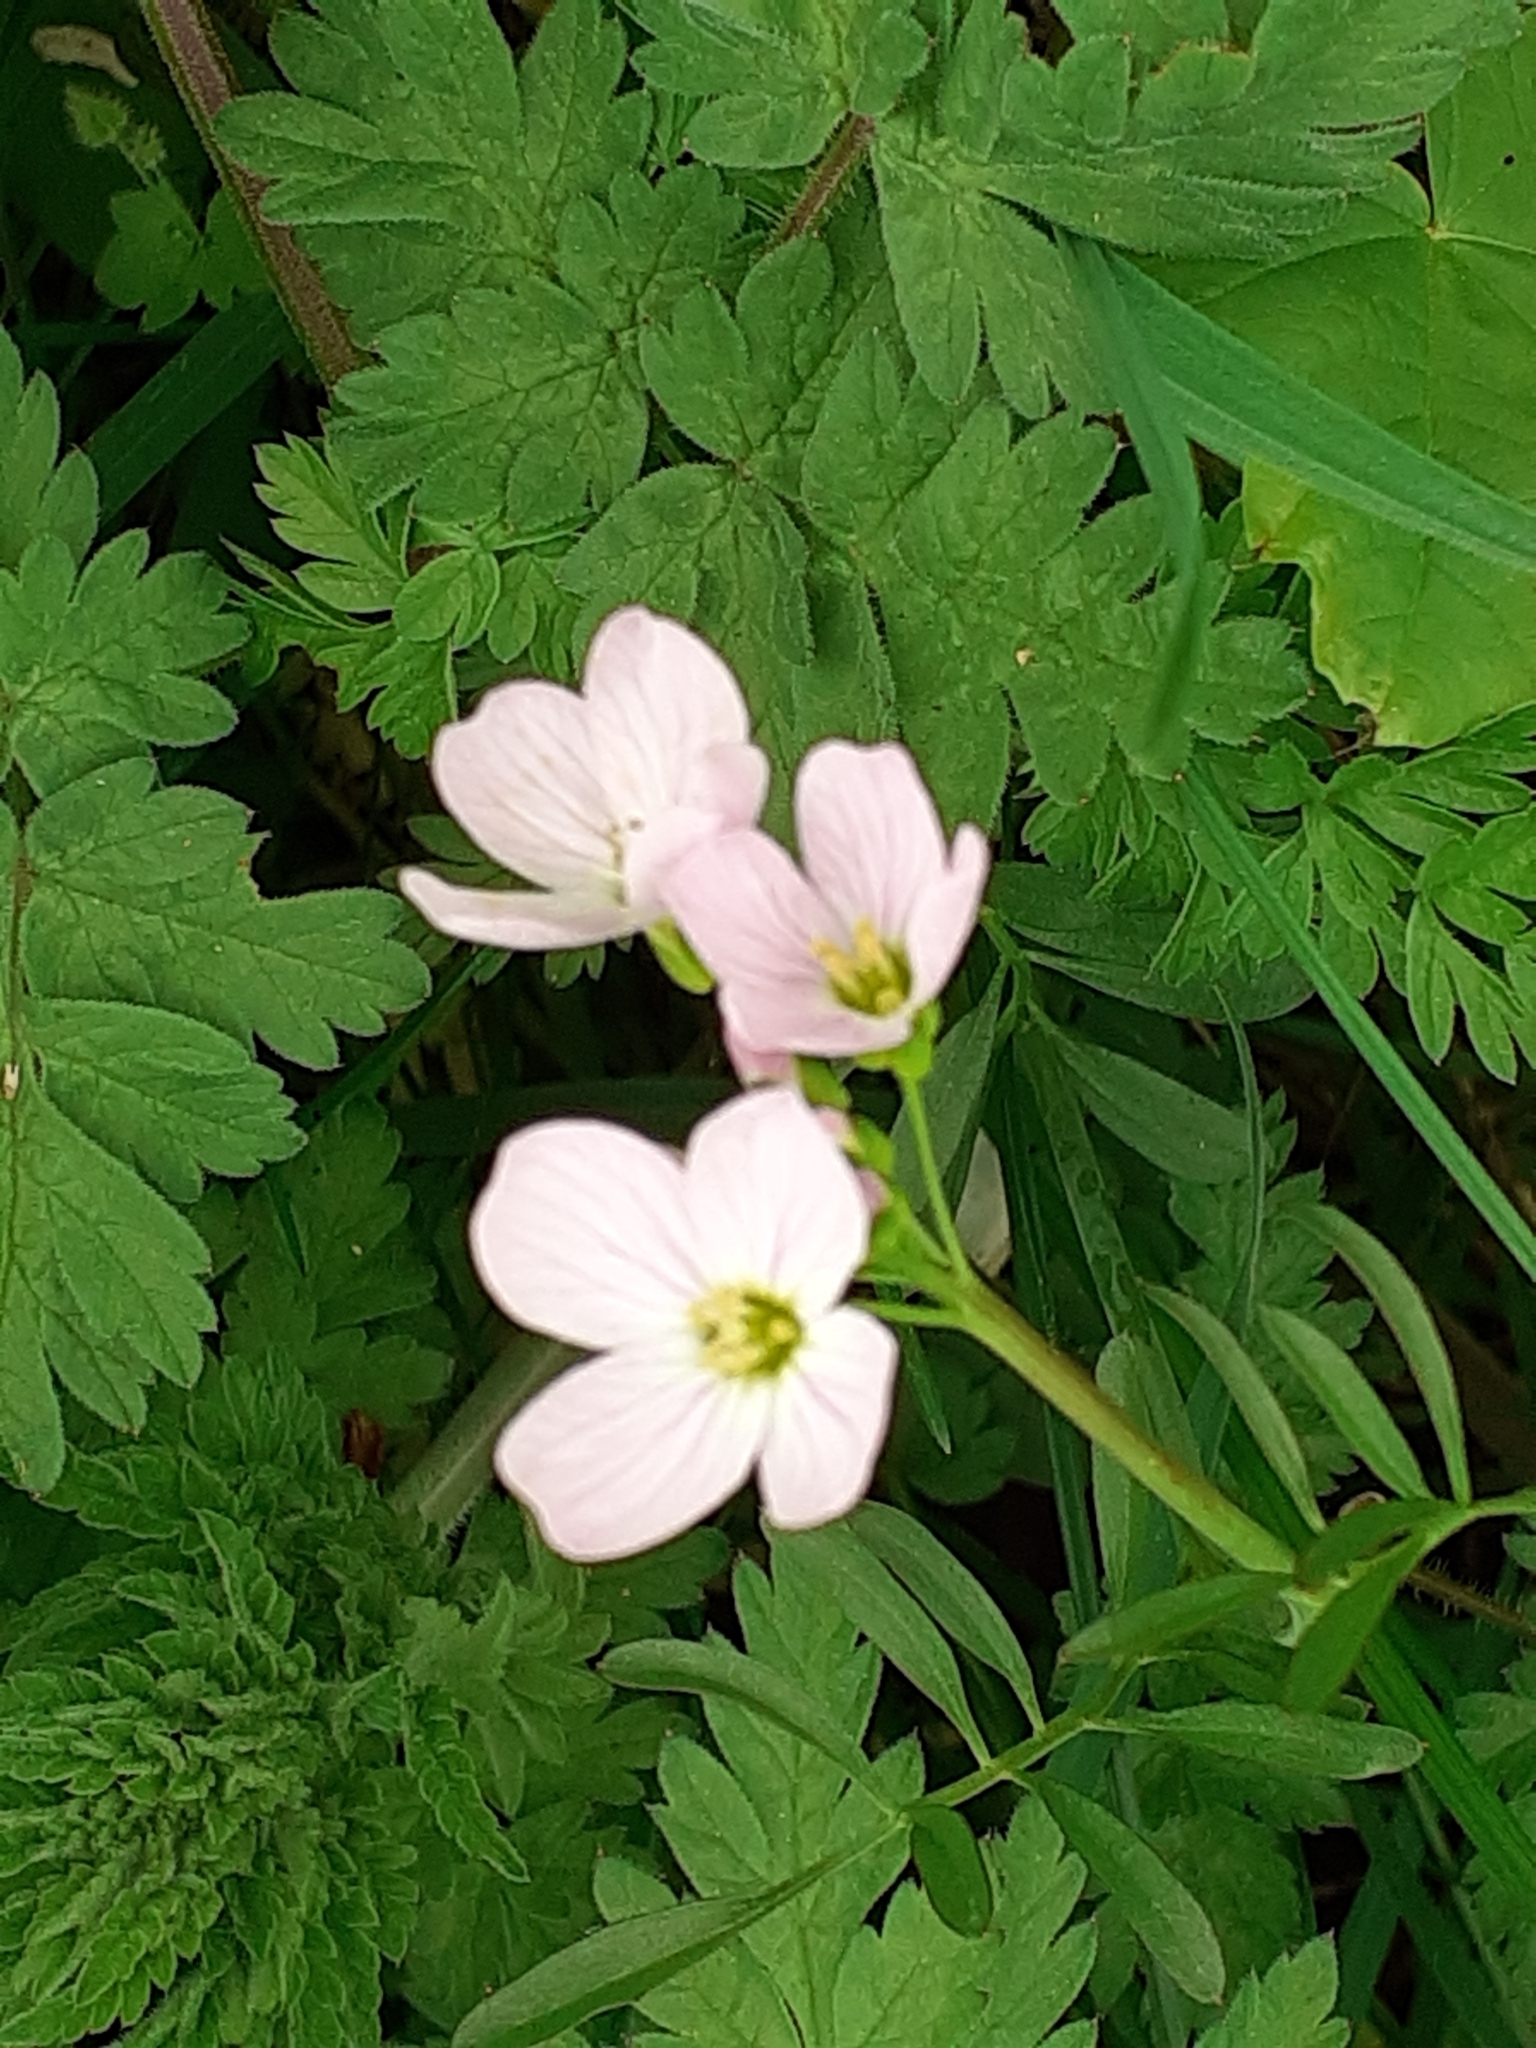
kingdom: Plantae
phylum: Tracheophyta
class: Magnoliopsida
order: Brassicales
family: Brassicaceae
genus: Cardamine
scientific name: Cardamine pratensis
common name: Cuckoo flower
